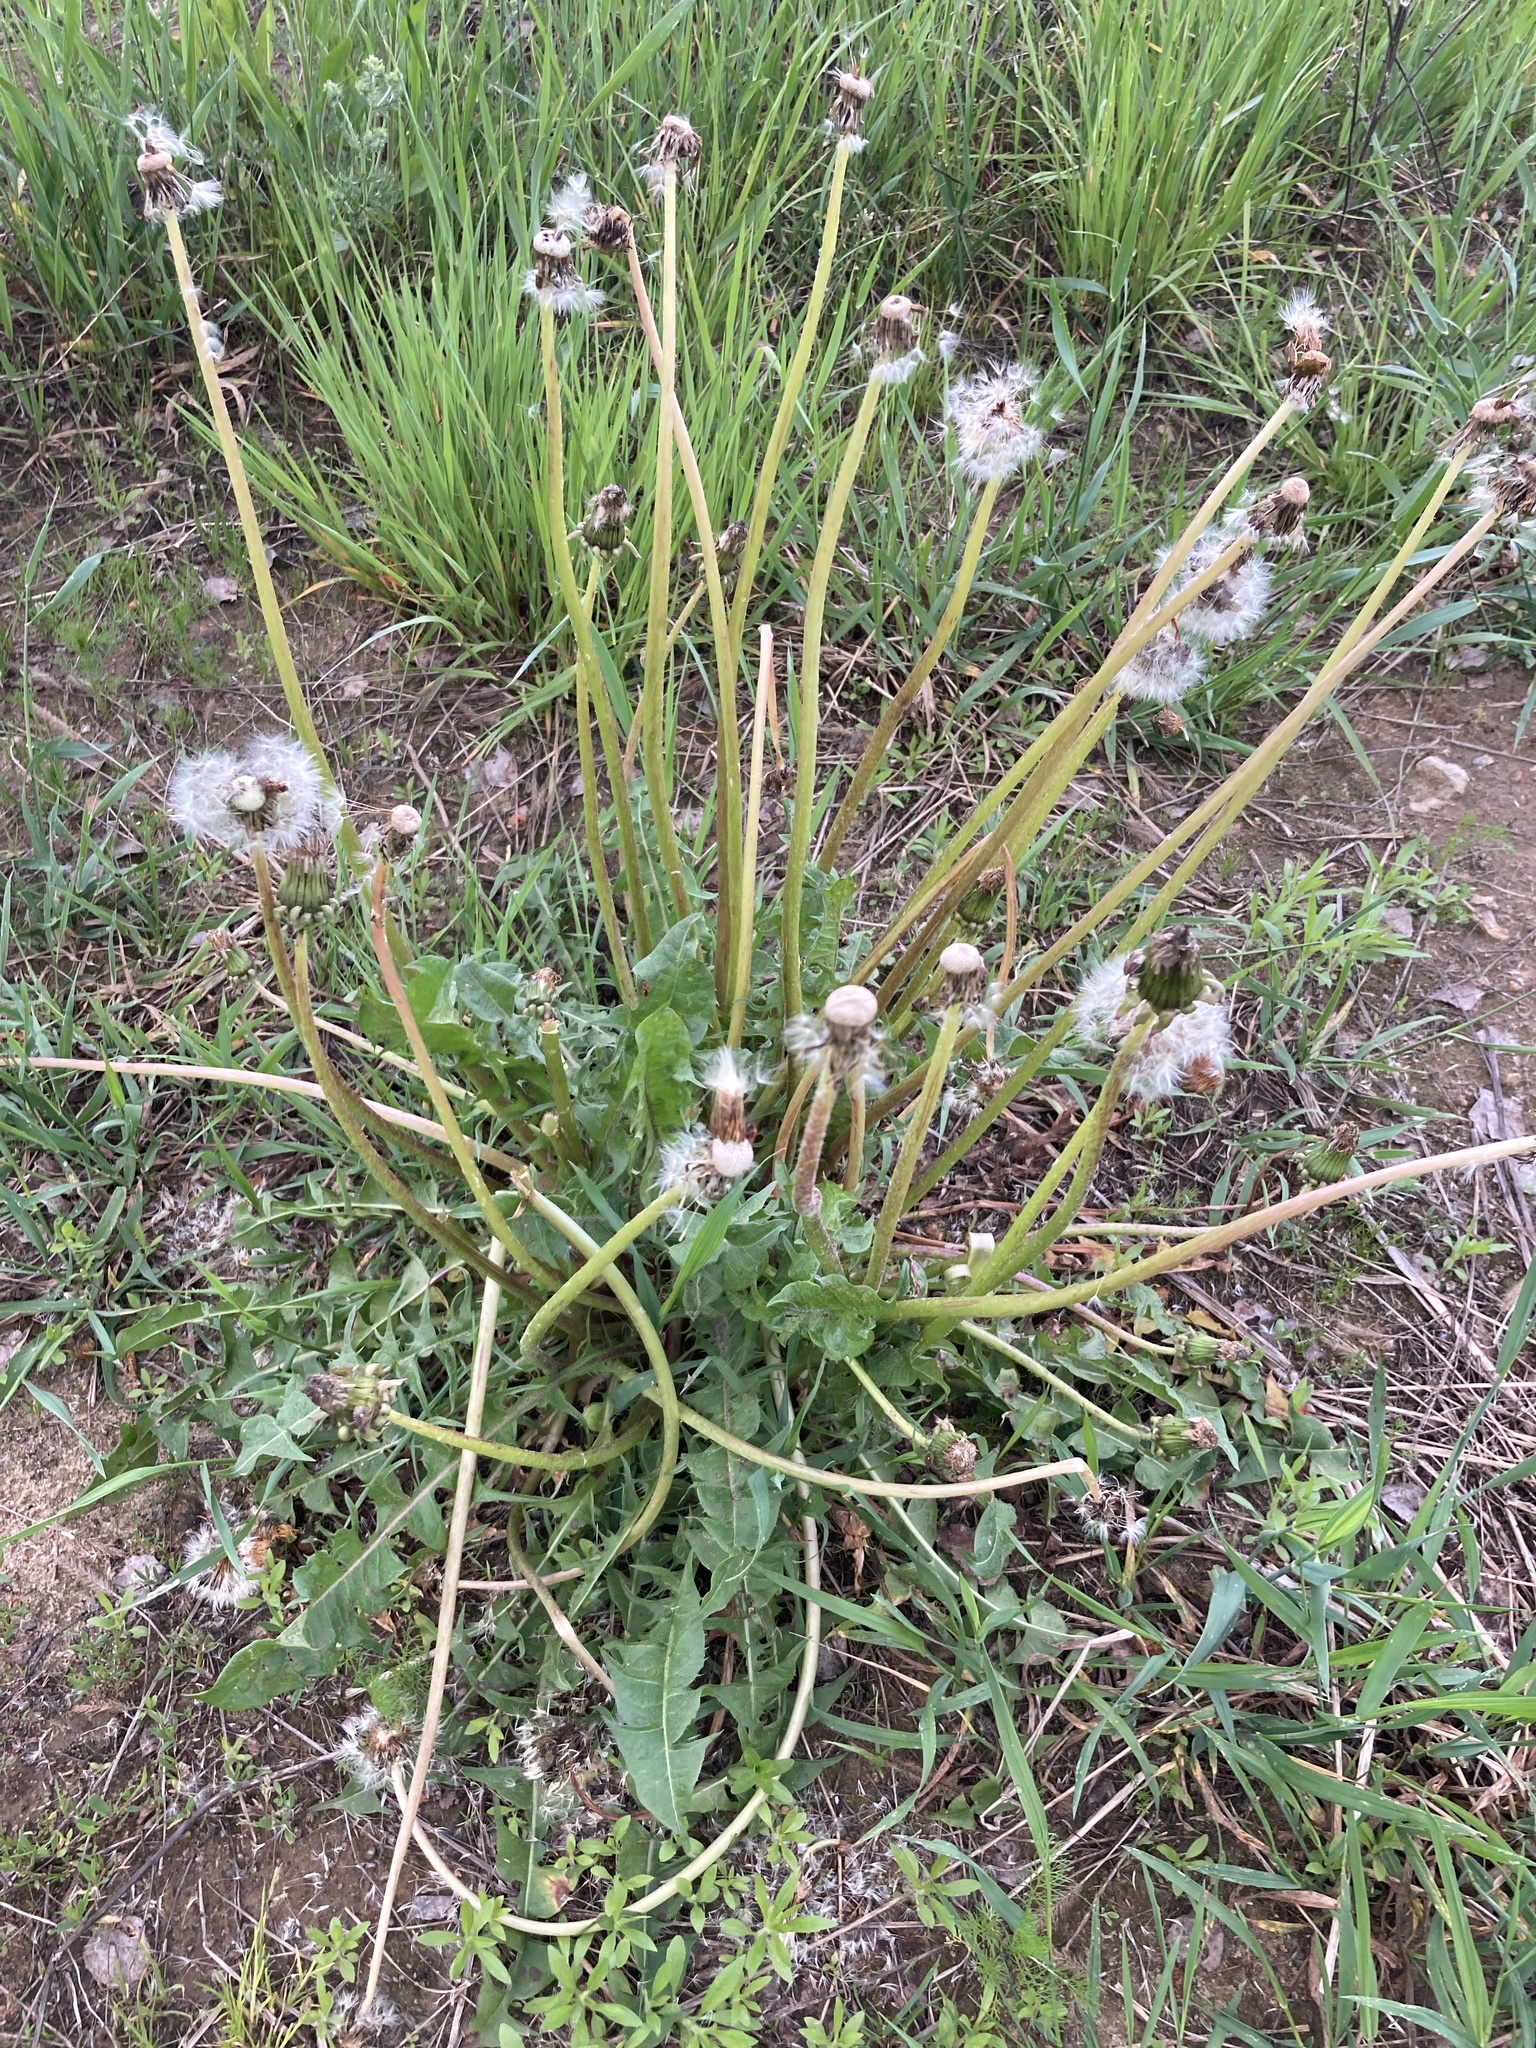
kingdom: Plantae
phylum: Tracheophyta
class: Magnoliopsida
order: Asterales
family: Asteraceae
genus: Taraxacum
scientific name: Taraxacum officinale
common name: Common dandelion
